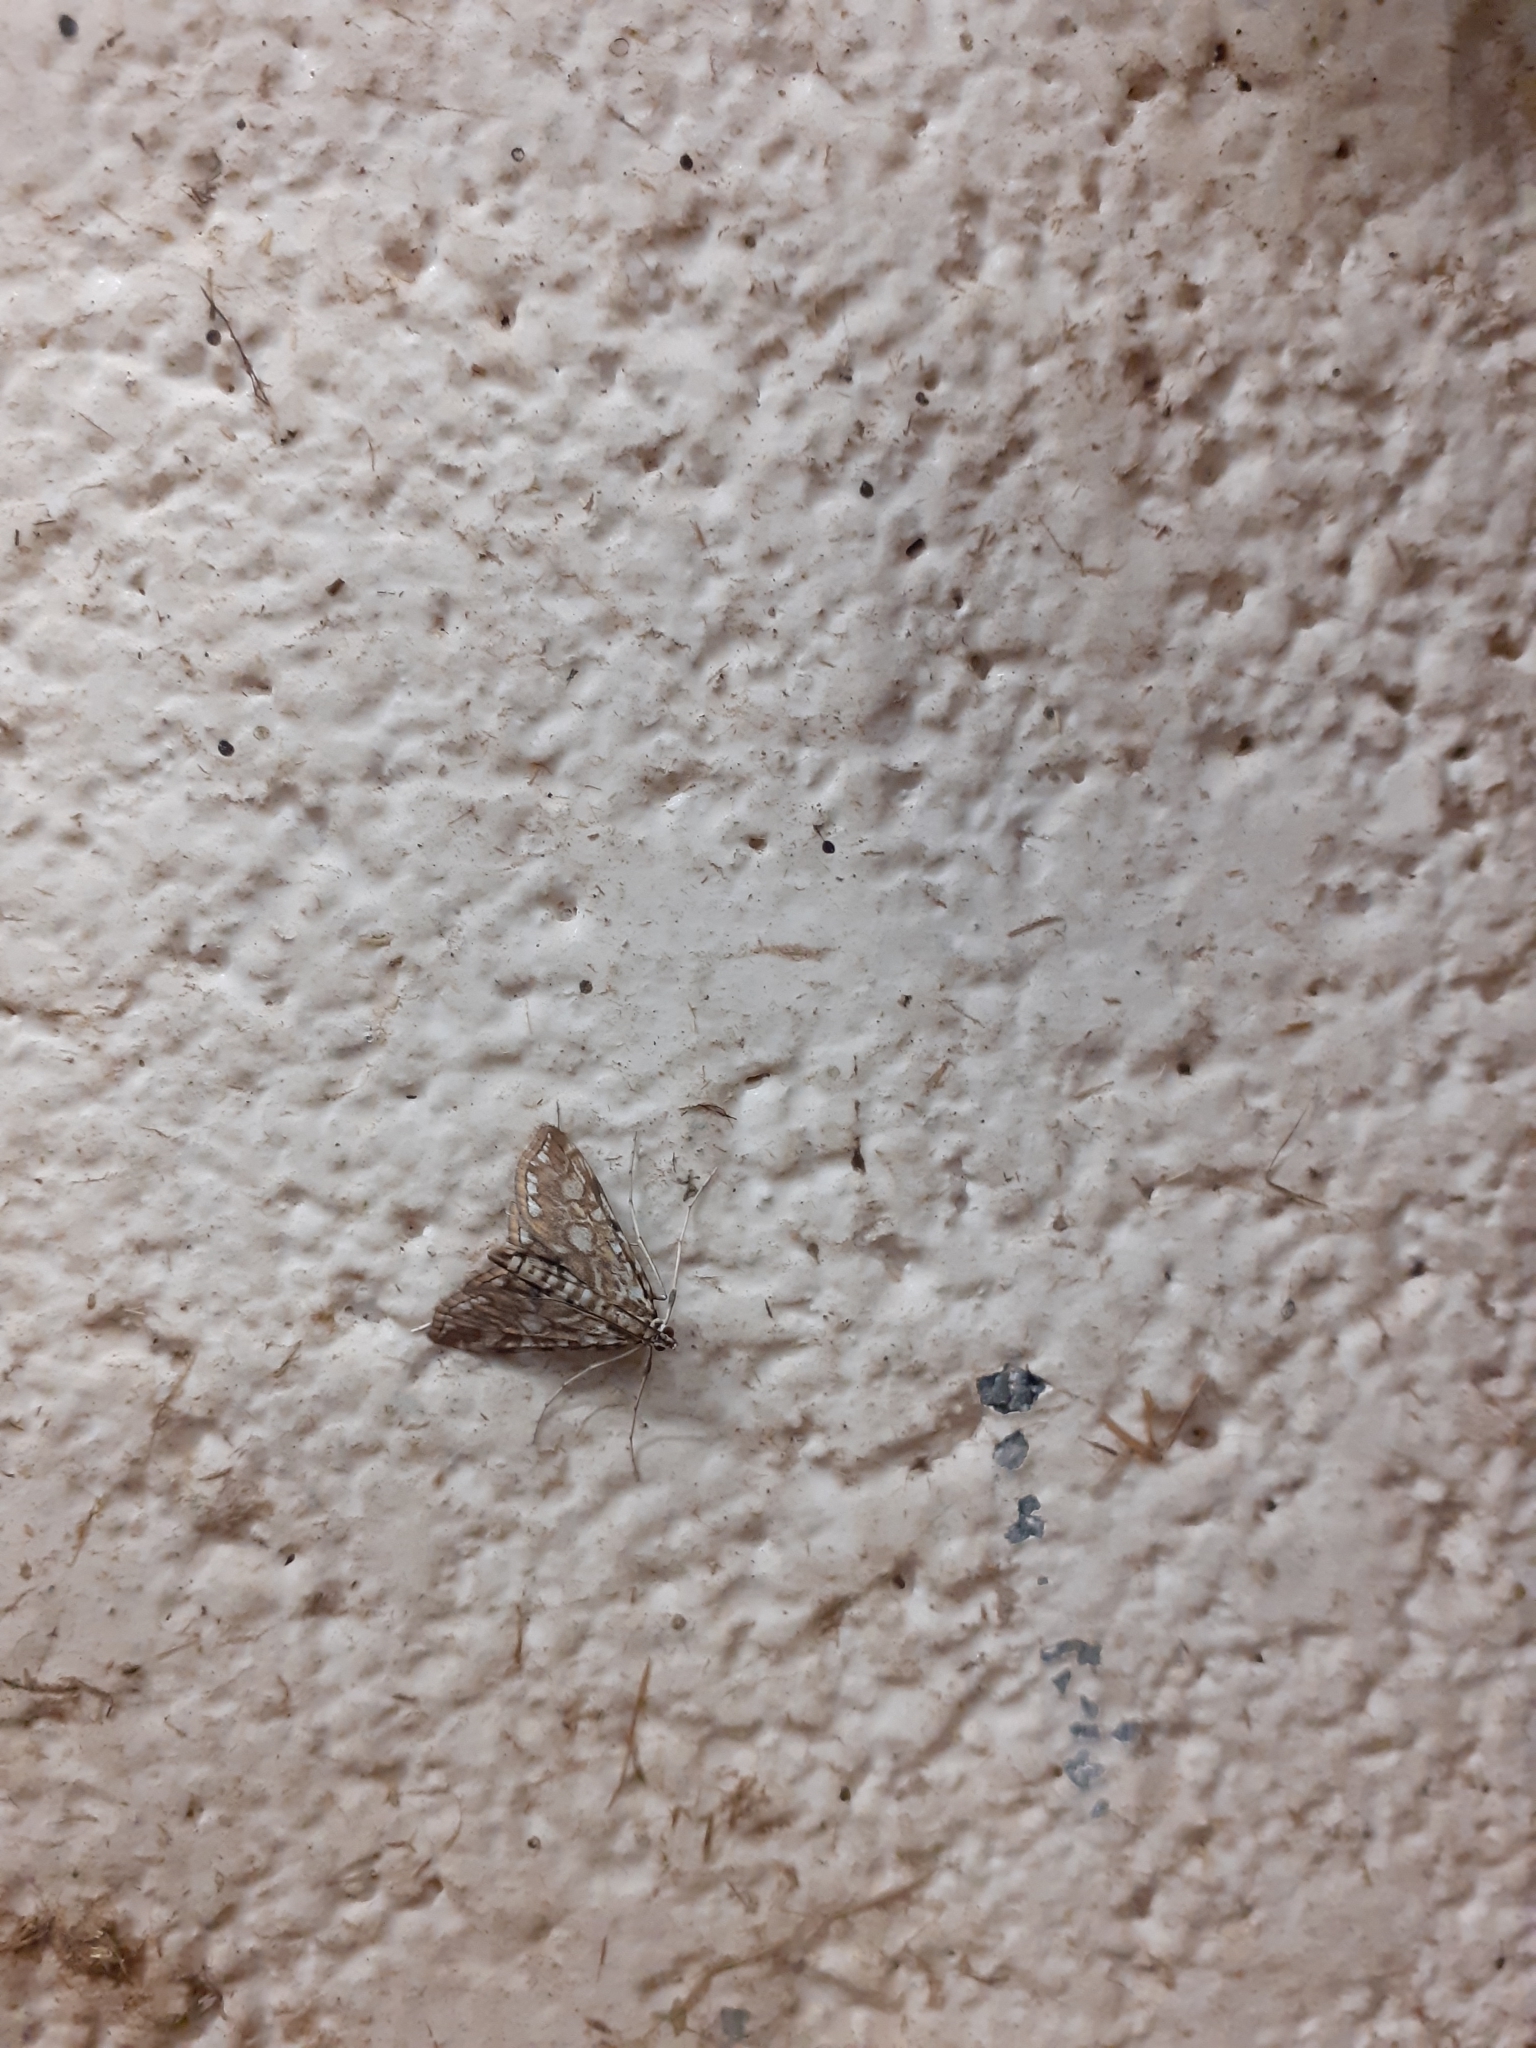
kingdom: Animalia
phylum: Arthropoda
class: Insecta
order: Lepidoptera
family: Crambidae
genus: Elophila
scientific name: Elophila nymphaeata
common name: Brown china-mark
